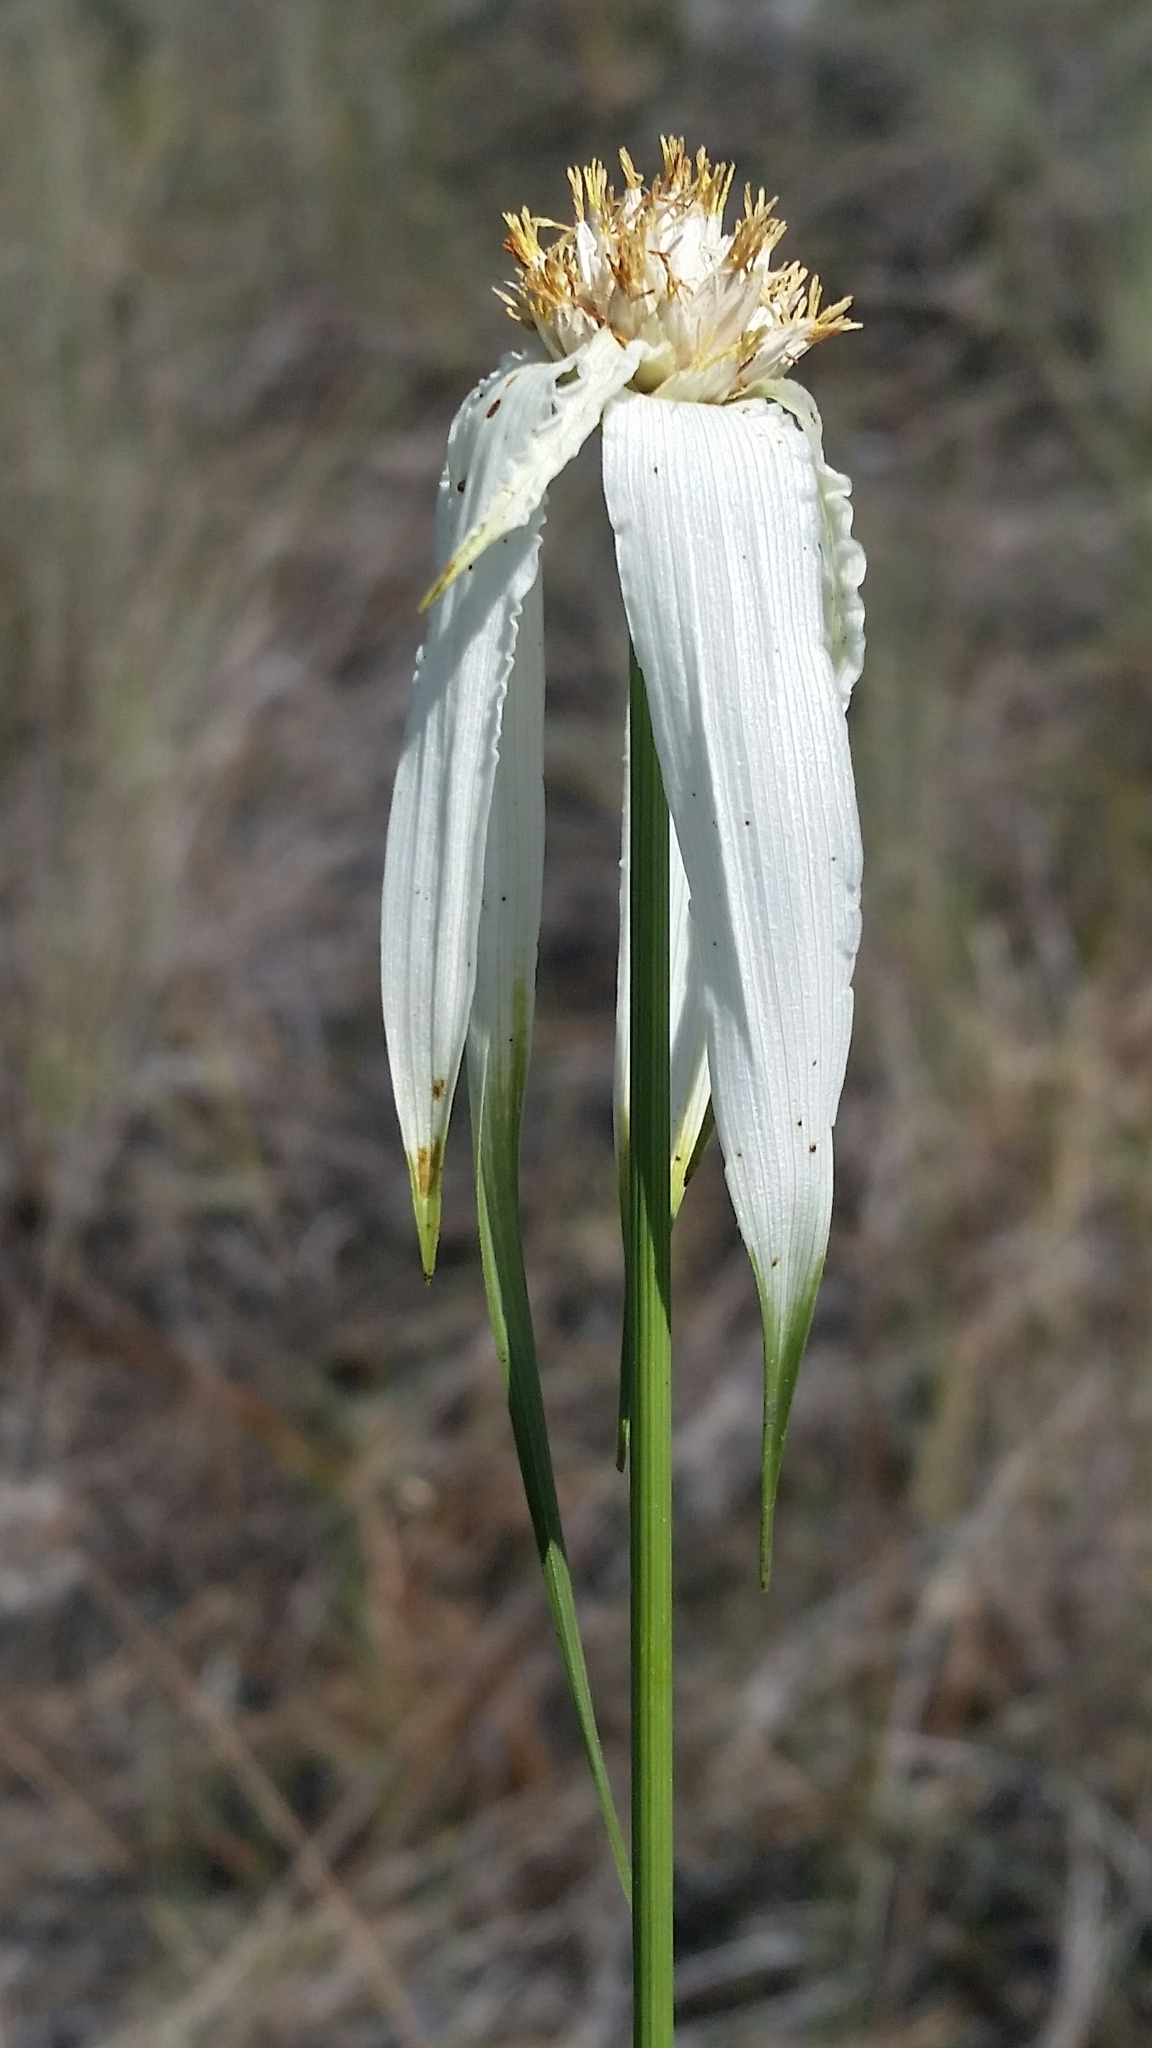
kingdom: Plantae
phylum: Tracheophyta
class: Liliopsida
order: Poales
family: Cyperaceae
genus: Rhynchospora
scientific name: Rhynchospora latifolia
